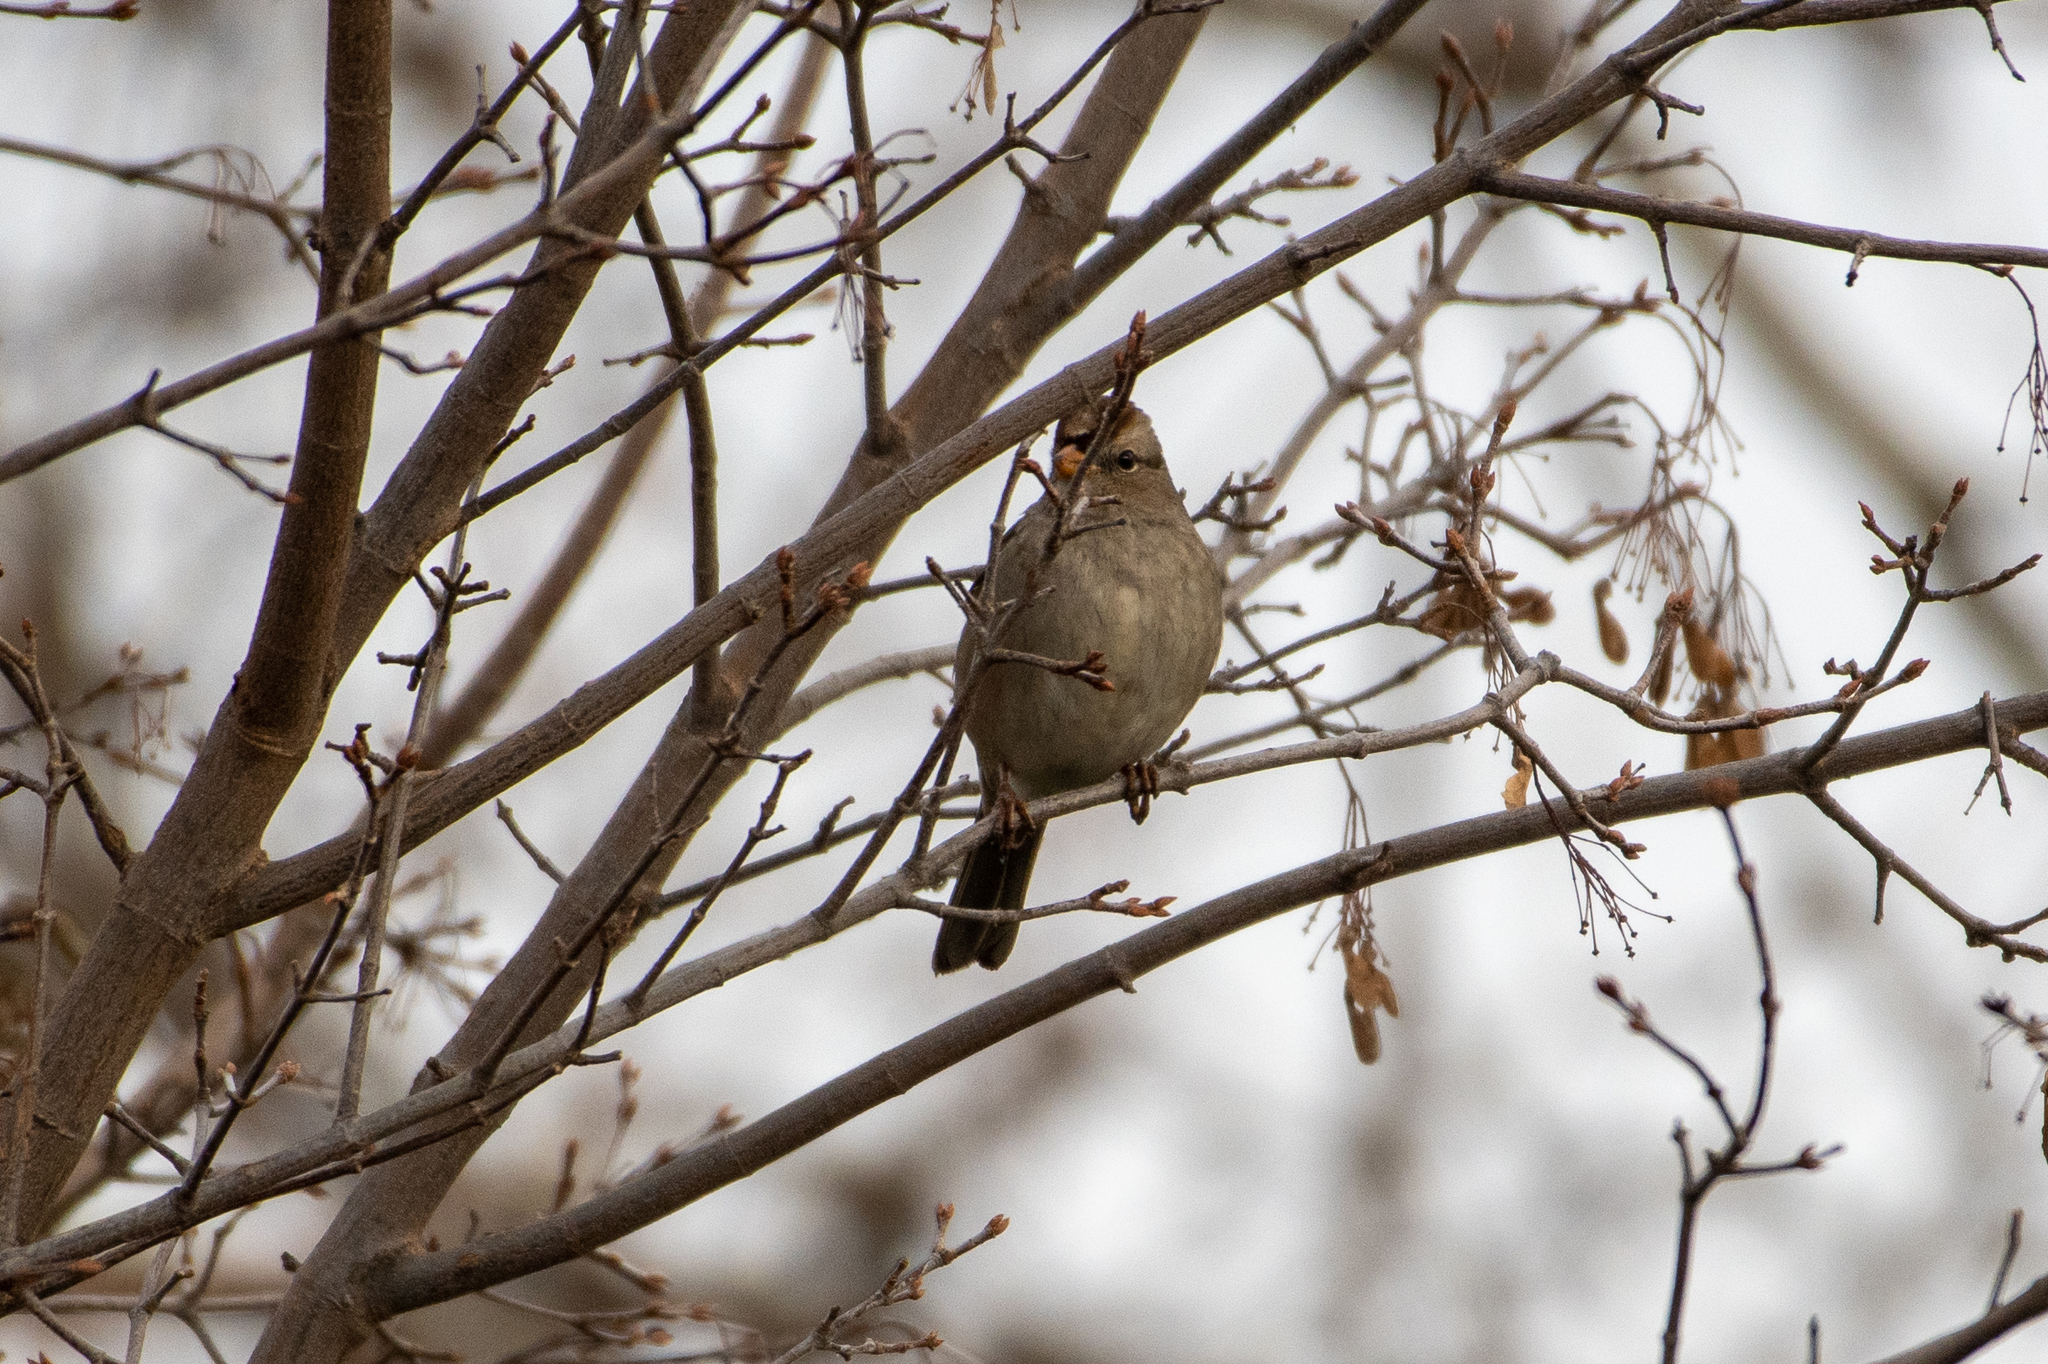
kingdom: Animalia
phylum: Chordata
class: Aves
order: Passeriformes
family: Passerellidae
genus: Zonotrichia
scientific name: Zonotrichia leucophrys
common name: White-crowned sparrow
